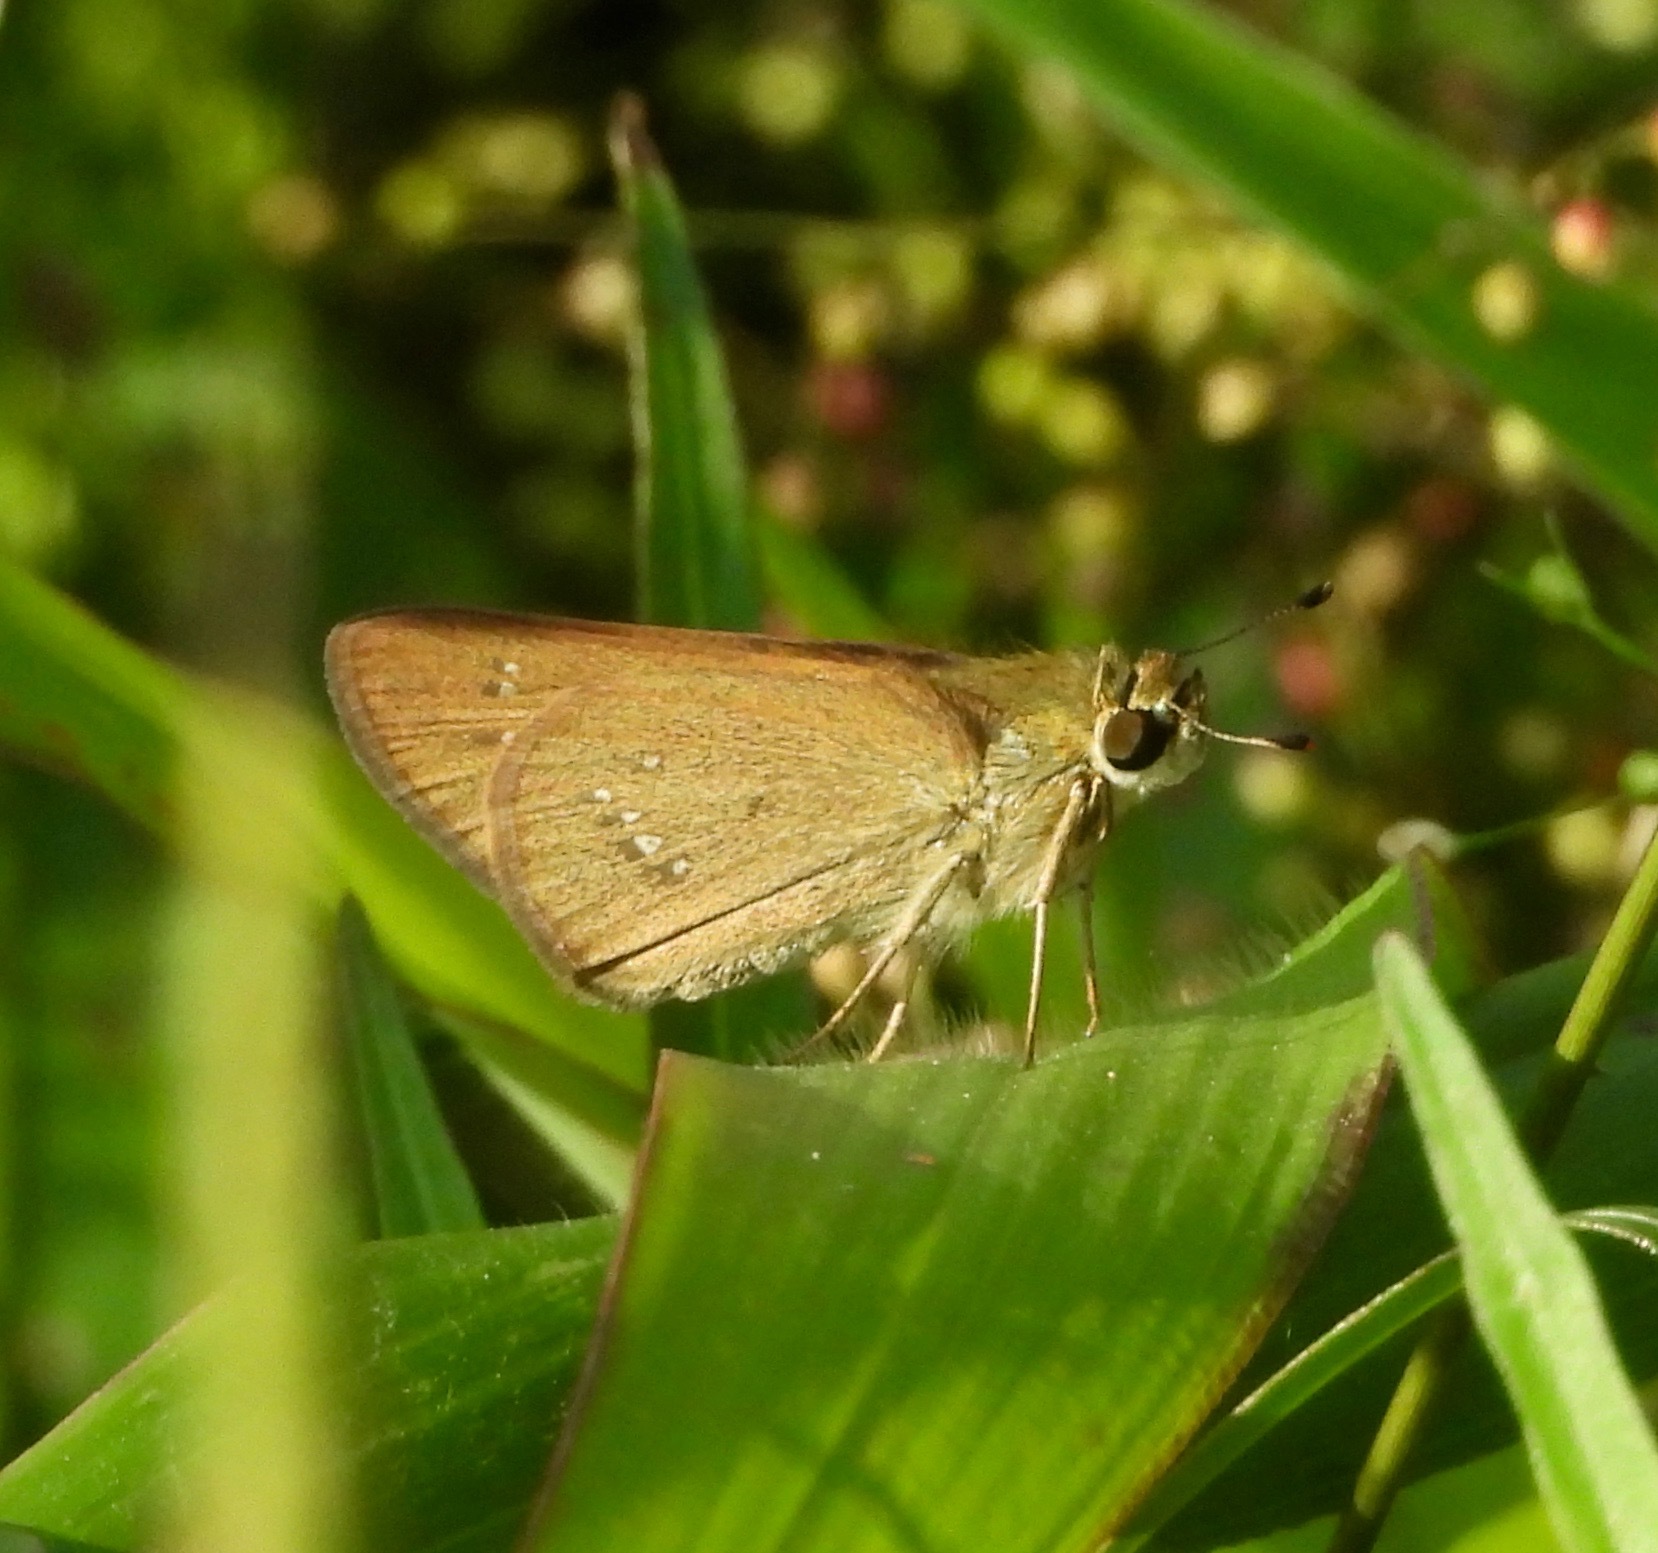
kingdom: Animalia
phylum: Arthropoda
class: Insecta
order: Lepidoptera
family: Hesperiidae
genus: Parnara
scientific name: Parnara naso
